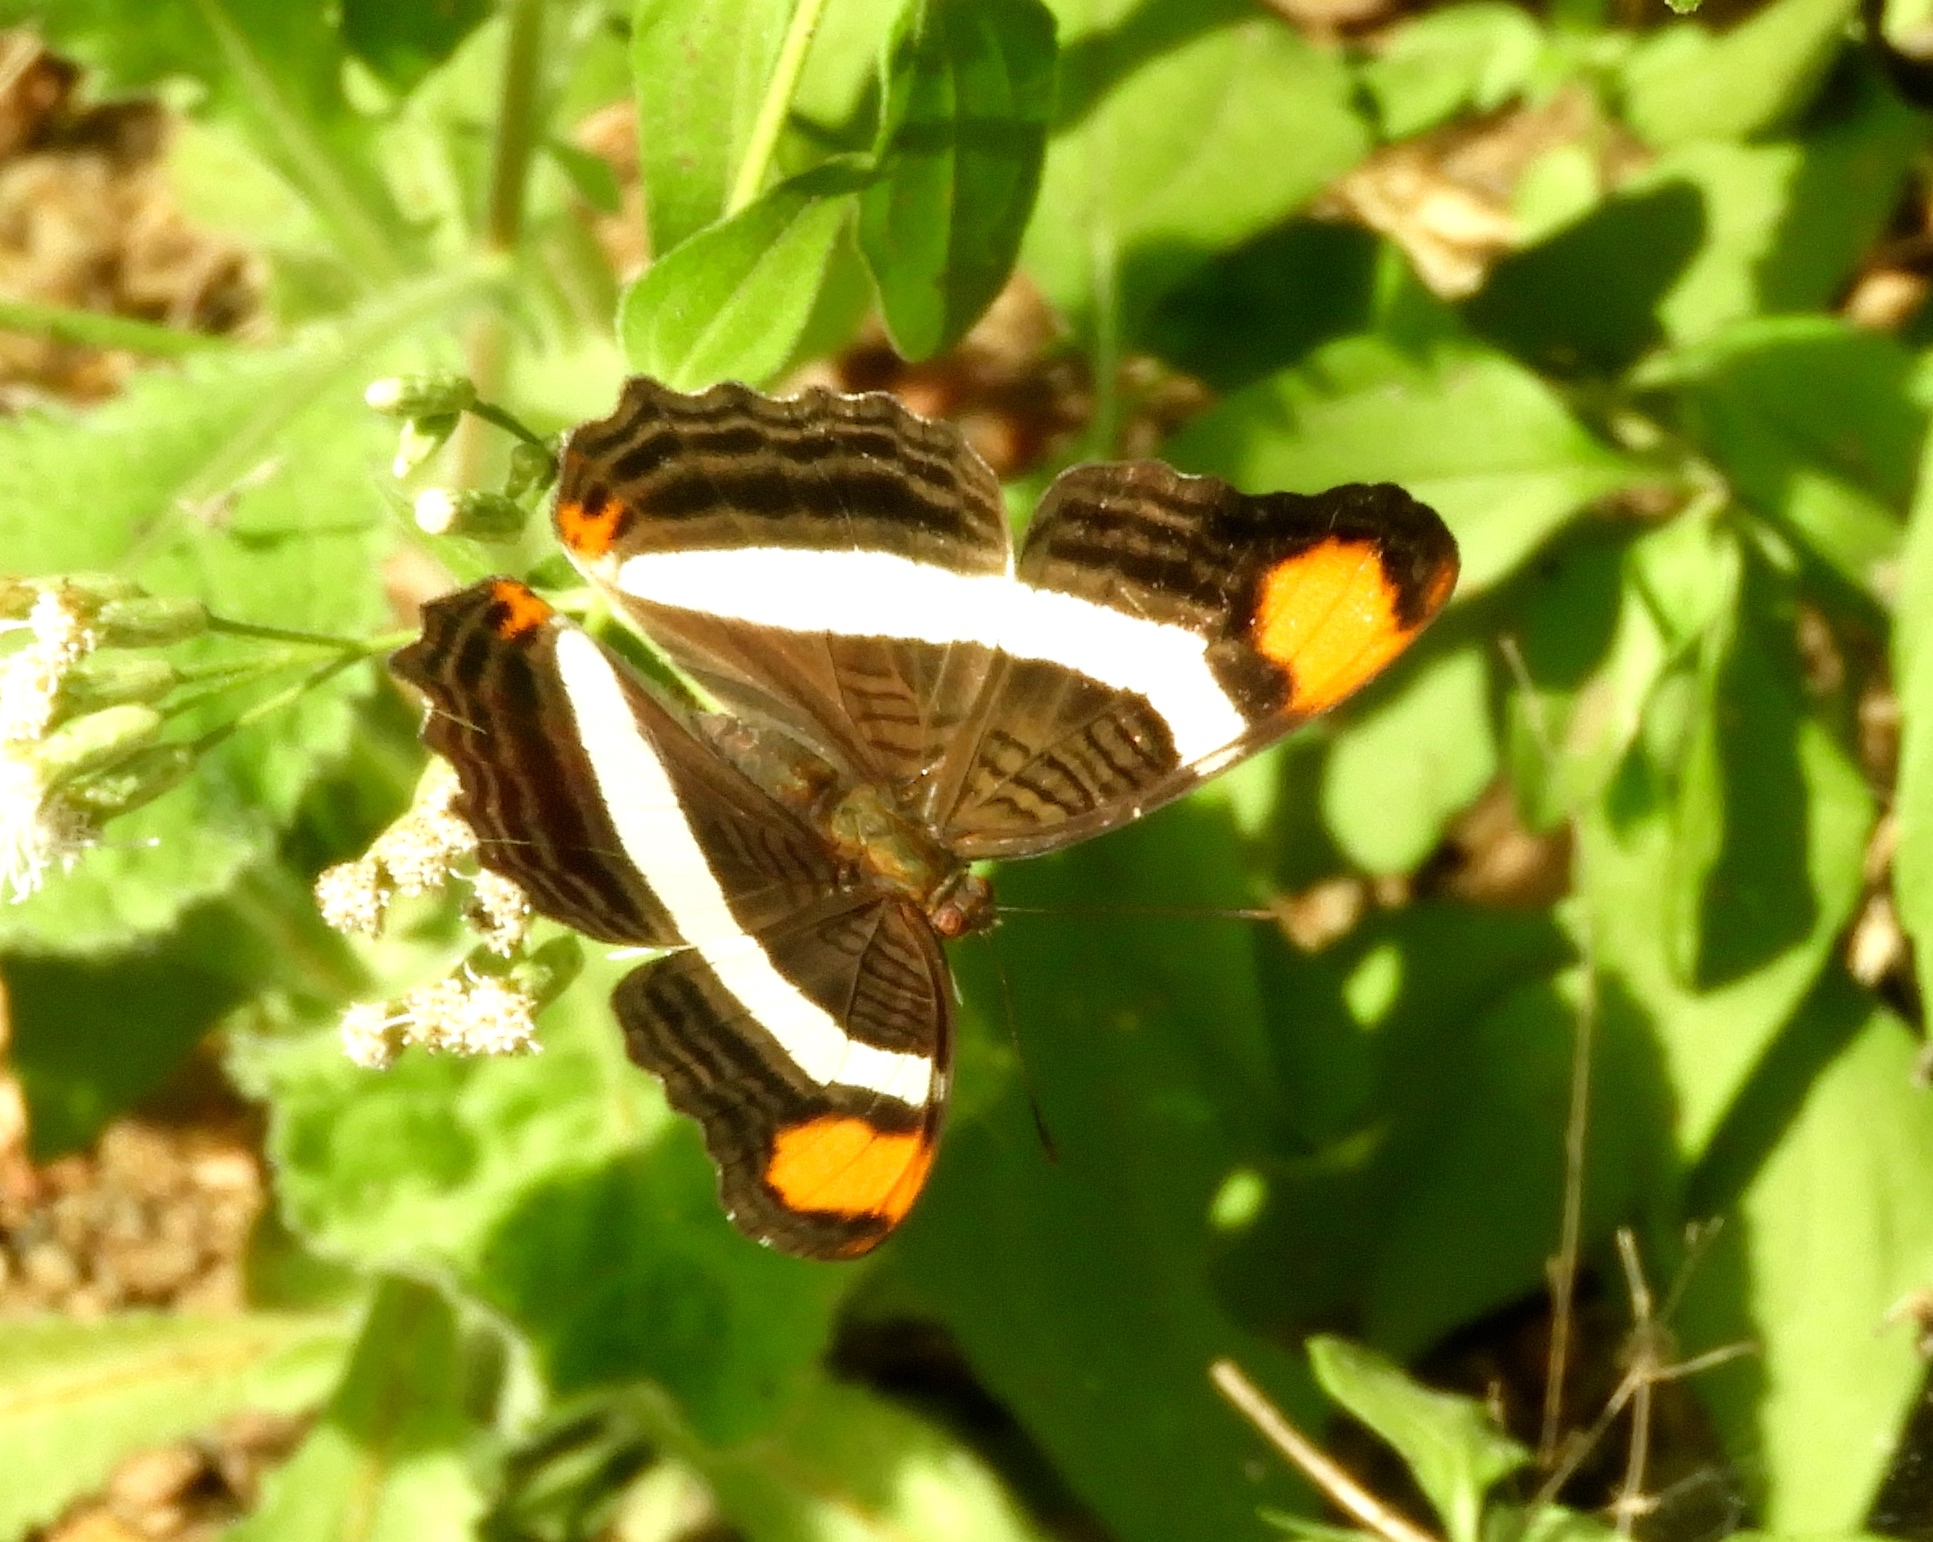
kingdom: Animalia
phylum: Arthropoda
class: Insecta
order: Lepidoptera
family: Nymphalidae
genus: Limenitis
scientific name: Limenitis fessonia
